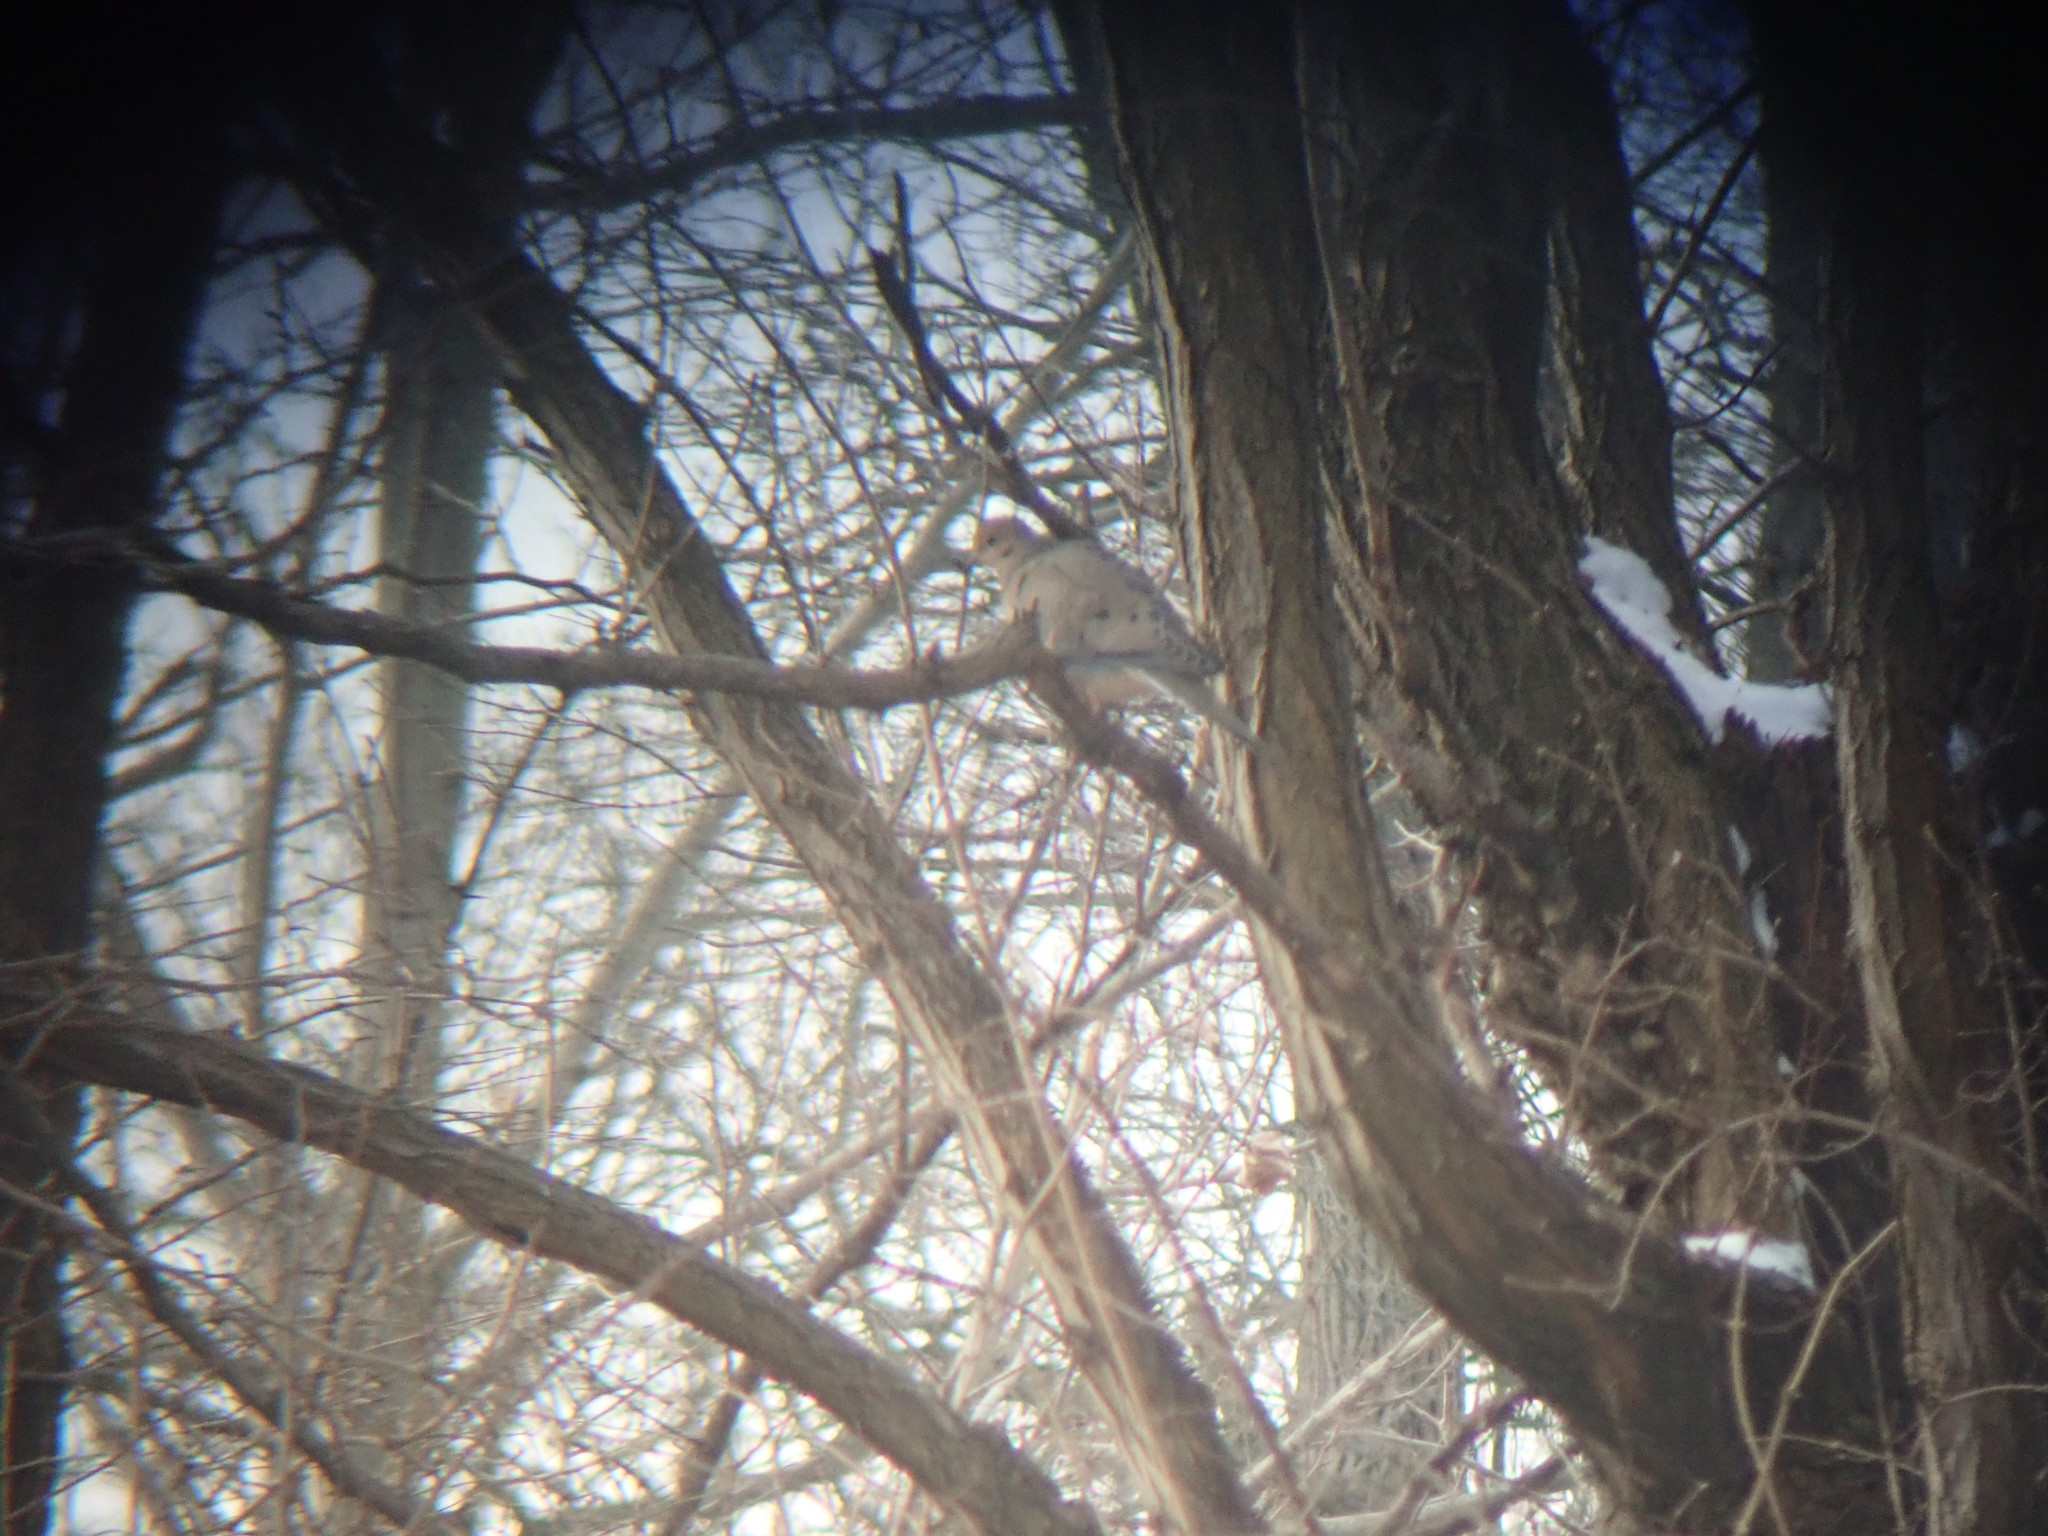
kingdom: Animalia
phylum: Chordata
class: Aves
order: Columbiformes
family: Columbidae
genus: Zenaida
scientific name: Zenaida macroura
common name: Mourning dove
